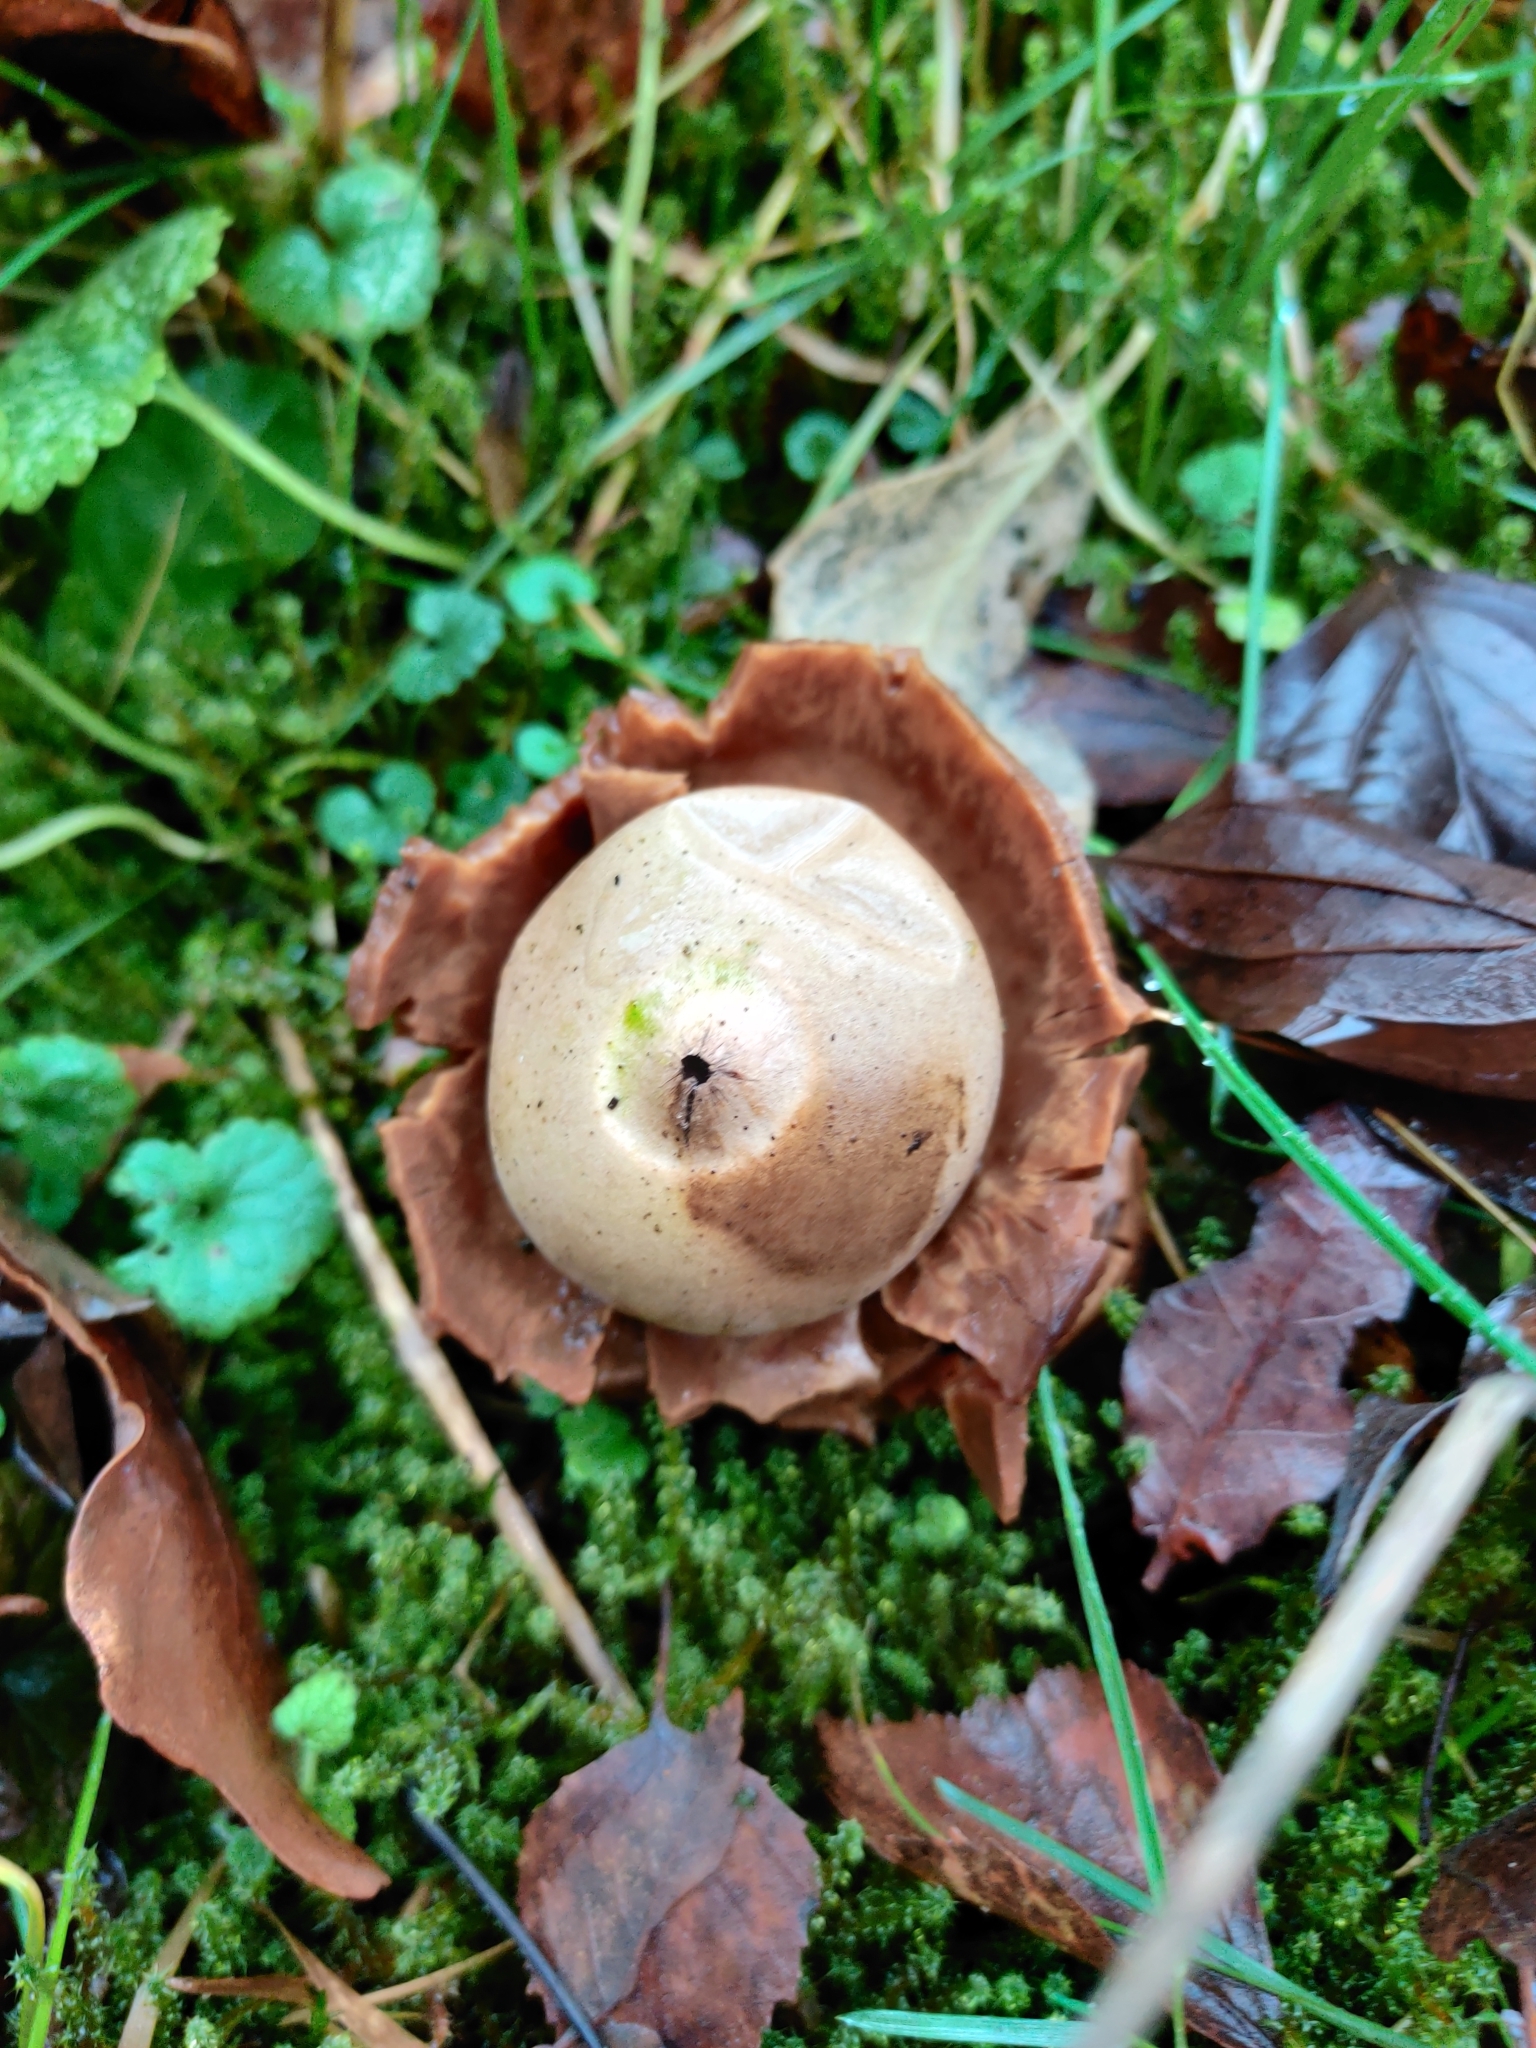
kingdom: Fungi
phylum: Basidiomycota
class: Agaricomycetes
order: Geastrales
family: Geastraceae
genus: Geastrum
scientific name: Geastrum triplex
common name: Collared earthstar
